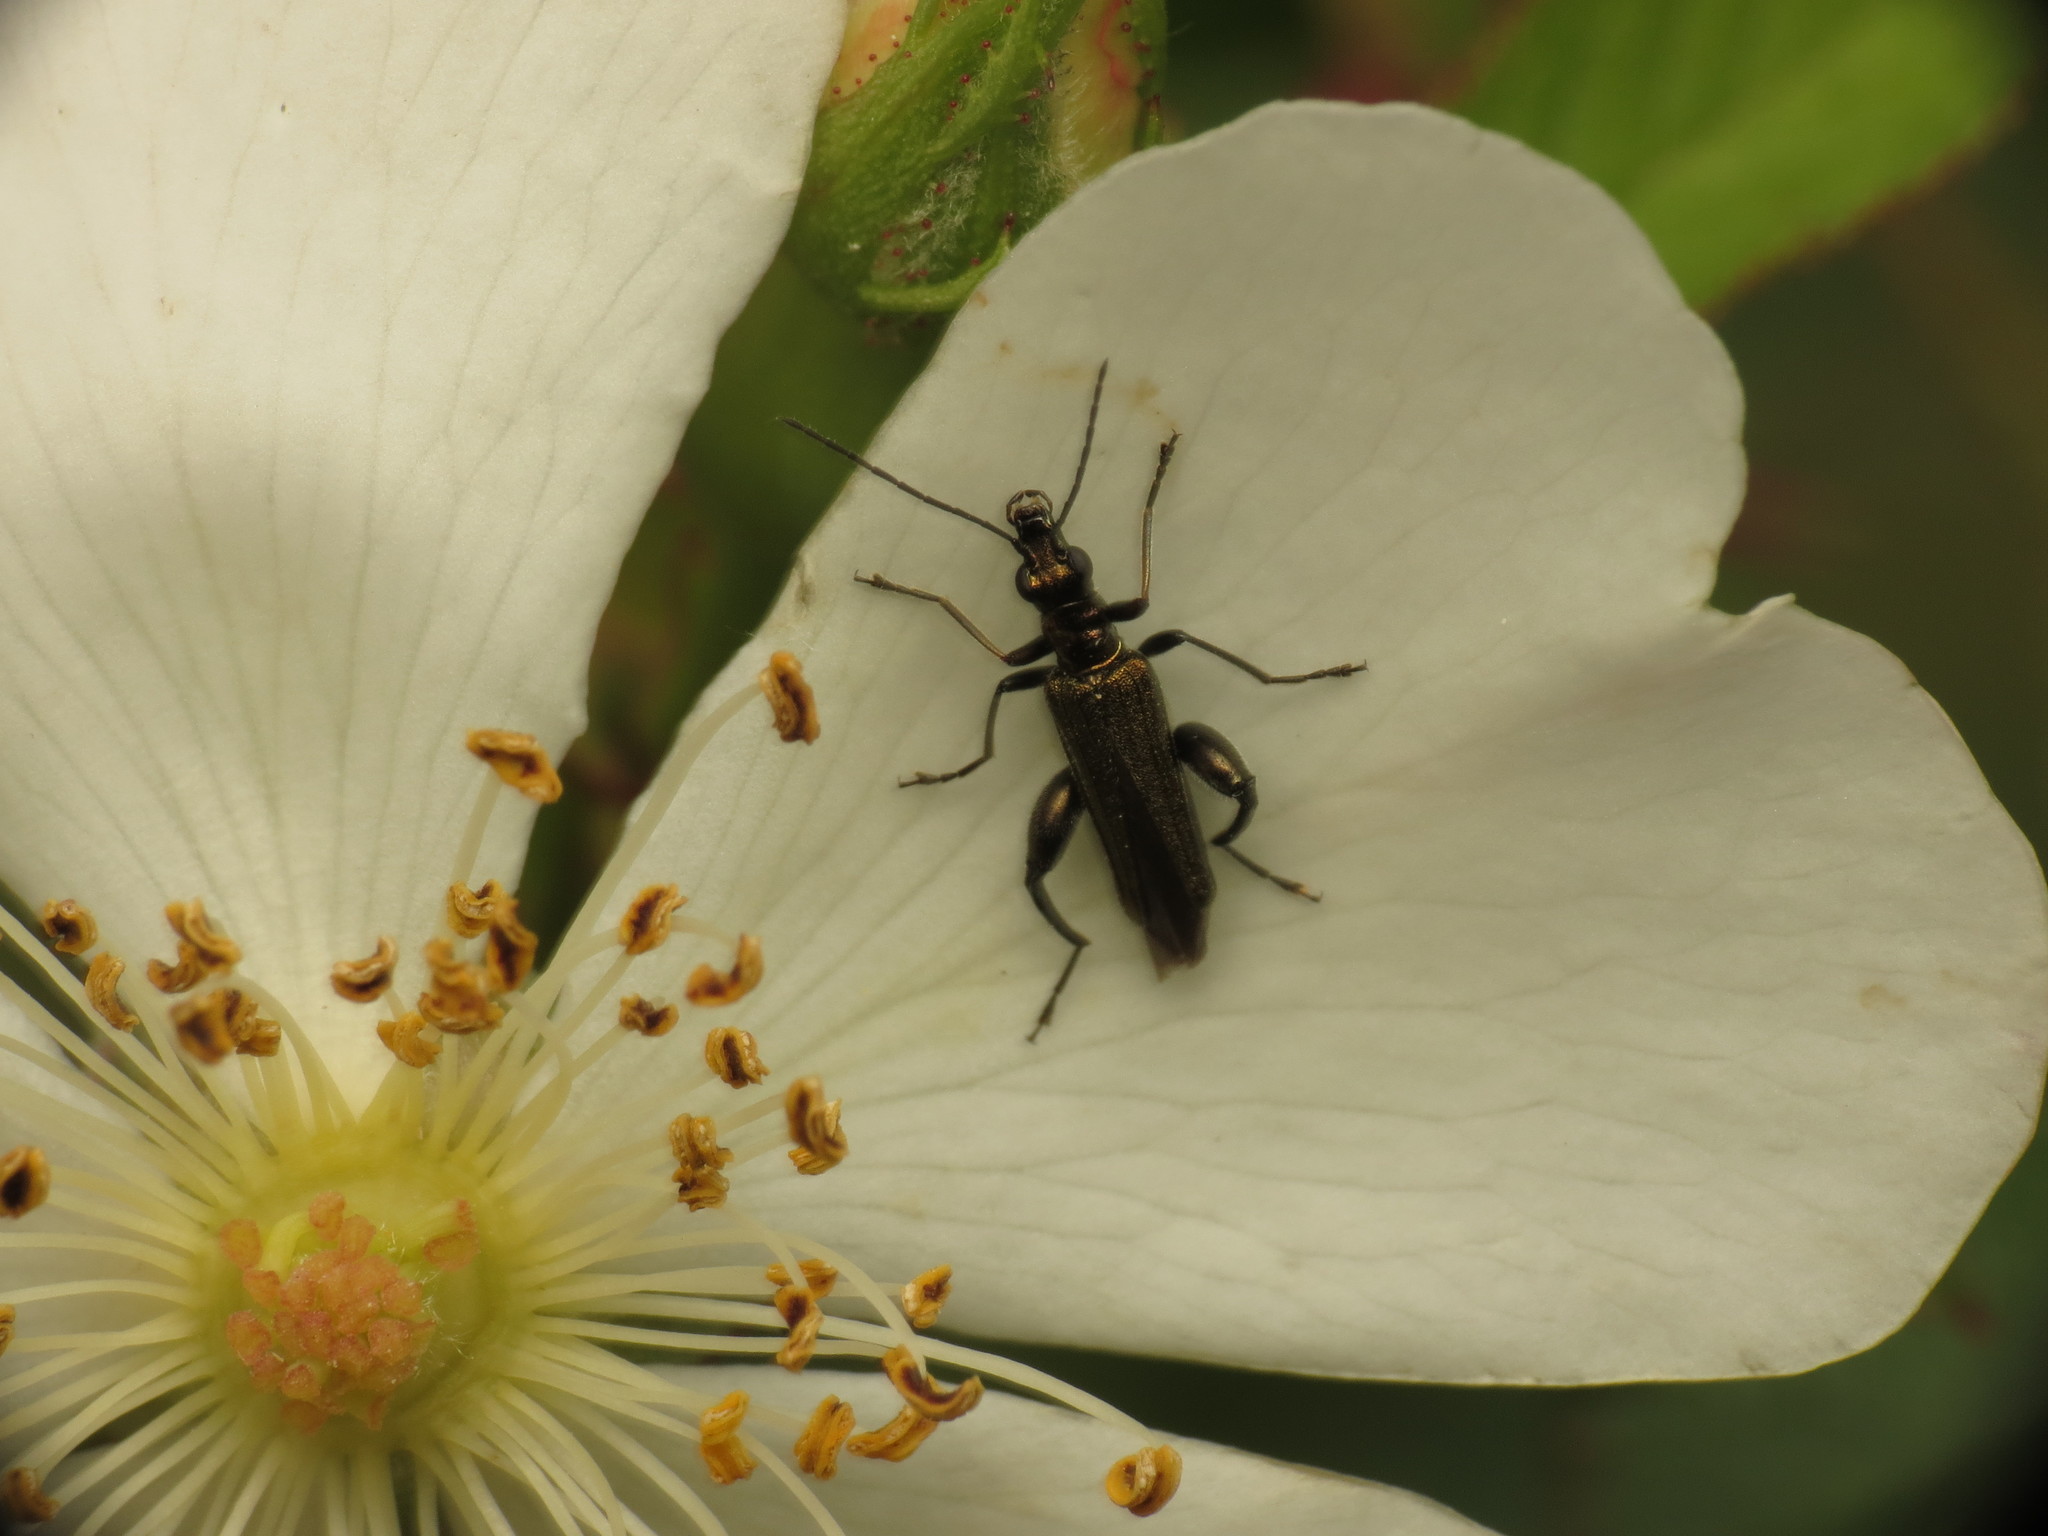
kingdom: Animalia
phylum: Arthropoda
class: Insecta
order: Coleoptera
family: Oedemeridae
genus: Oedemera
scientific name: Oedemera flavipes
